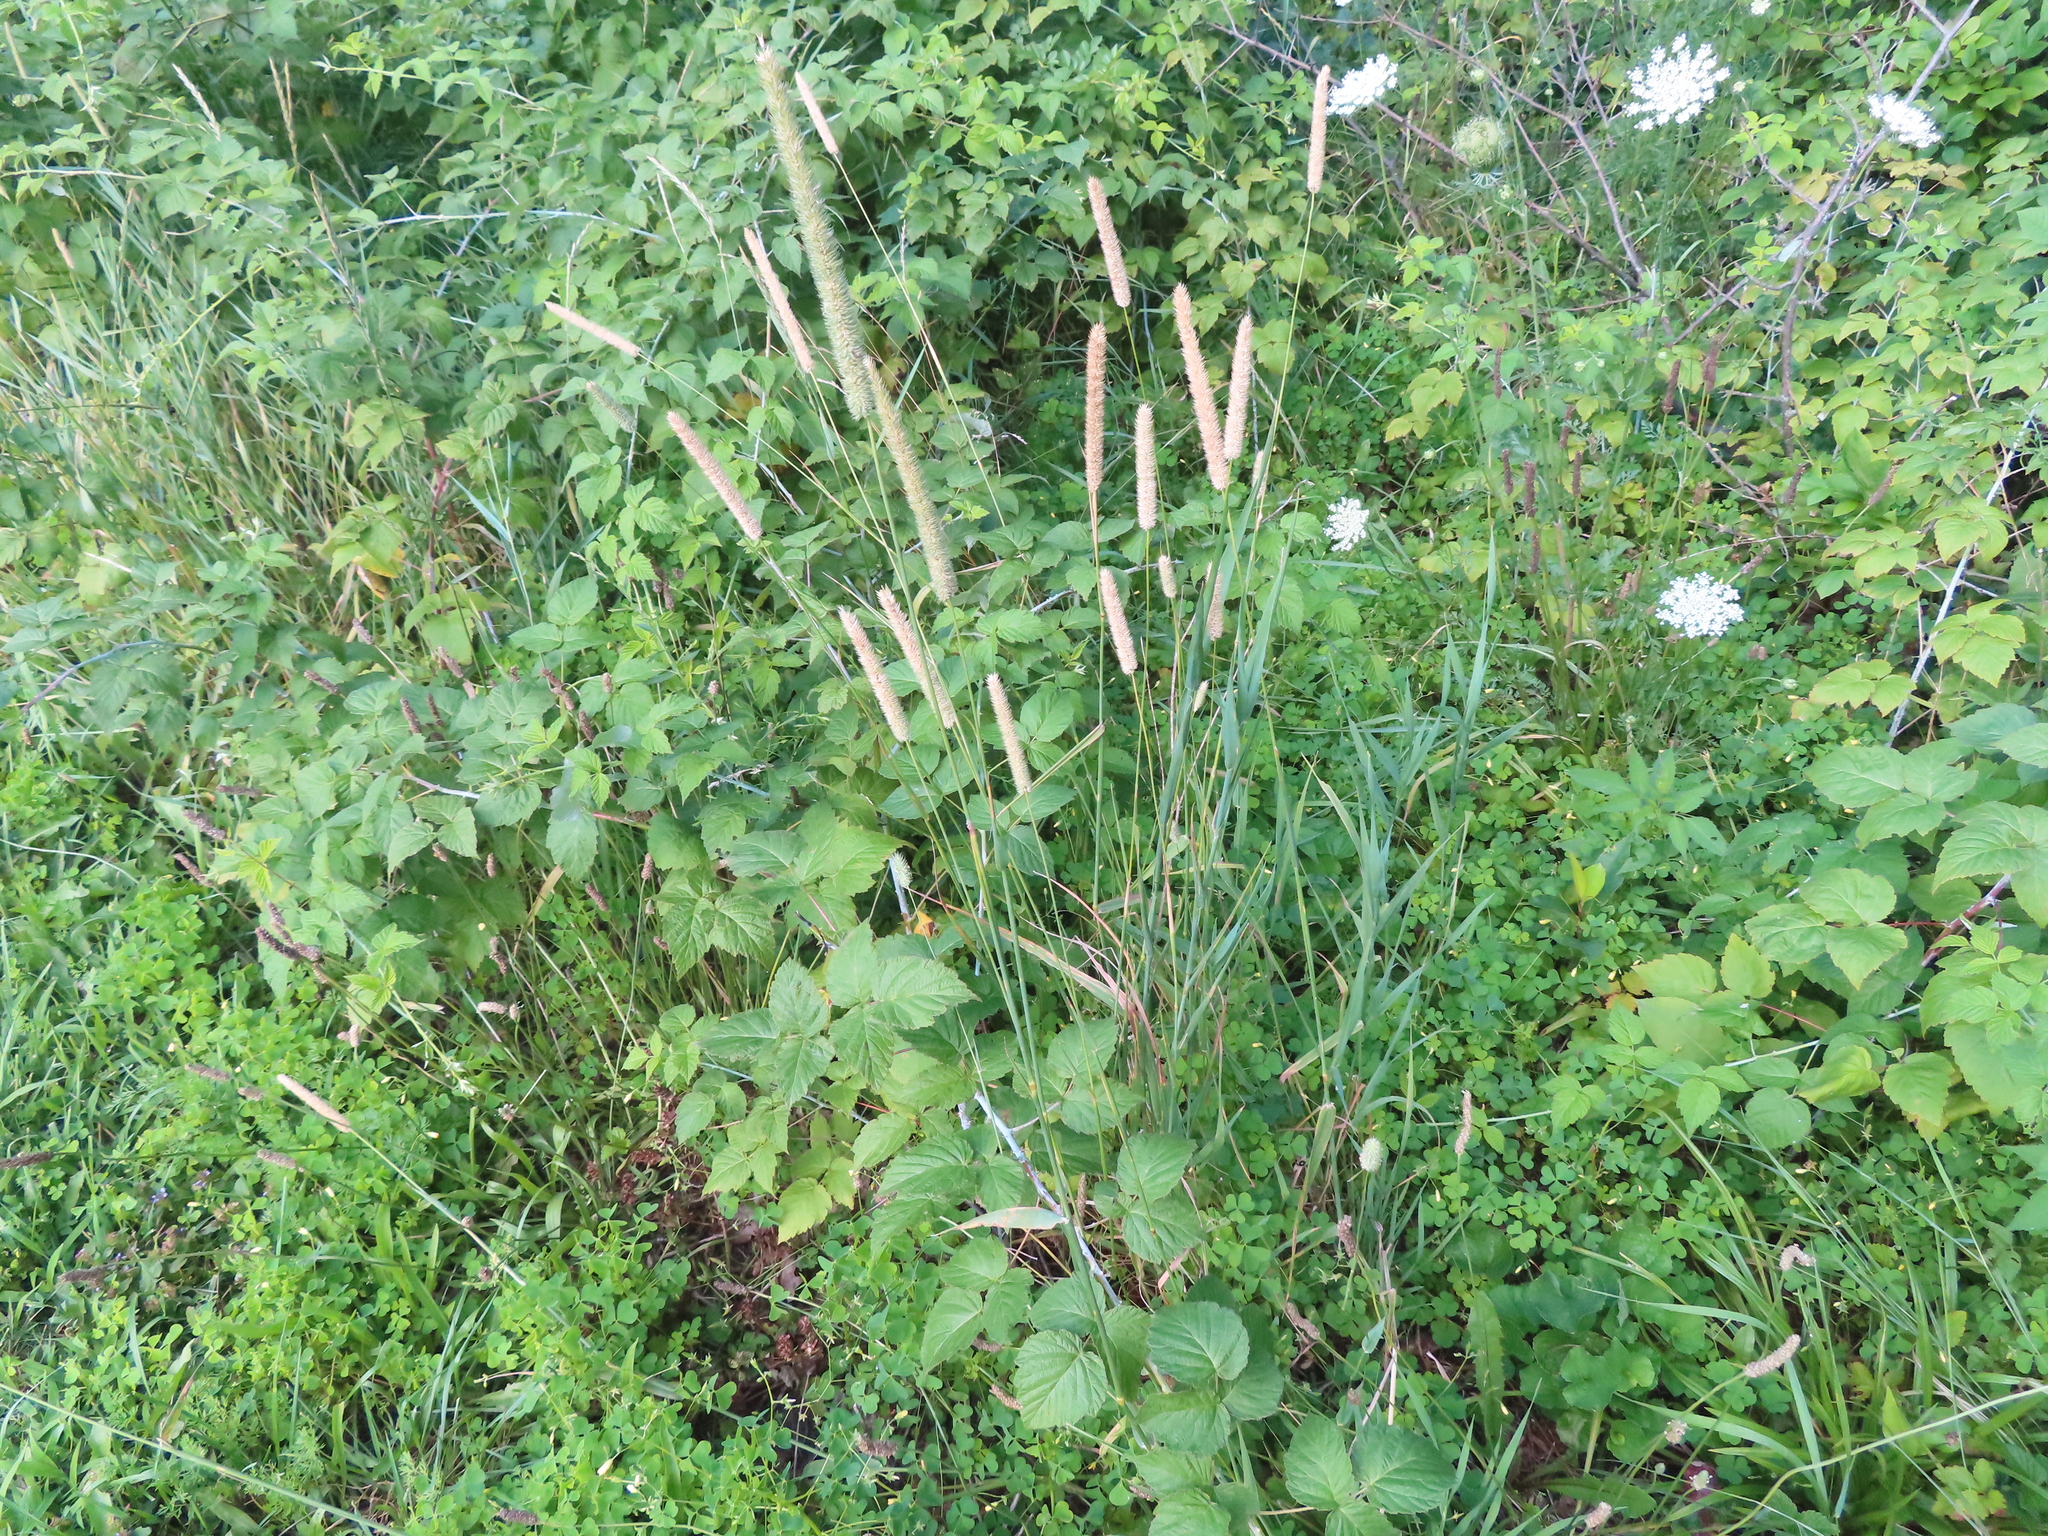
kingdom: Plantae
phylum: Tracheophyta
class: Liliopsida
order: Poales
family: Poaceae
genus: Phleum
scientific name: Phleum pratense
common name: Timothy grass
